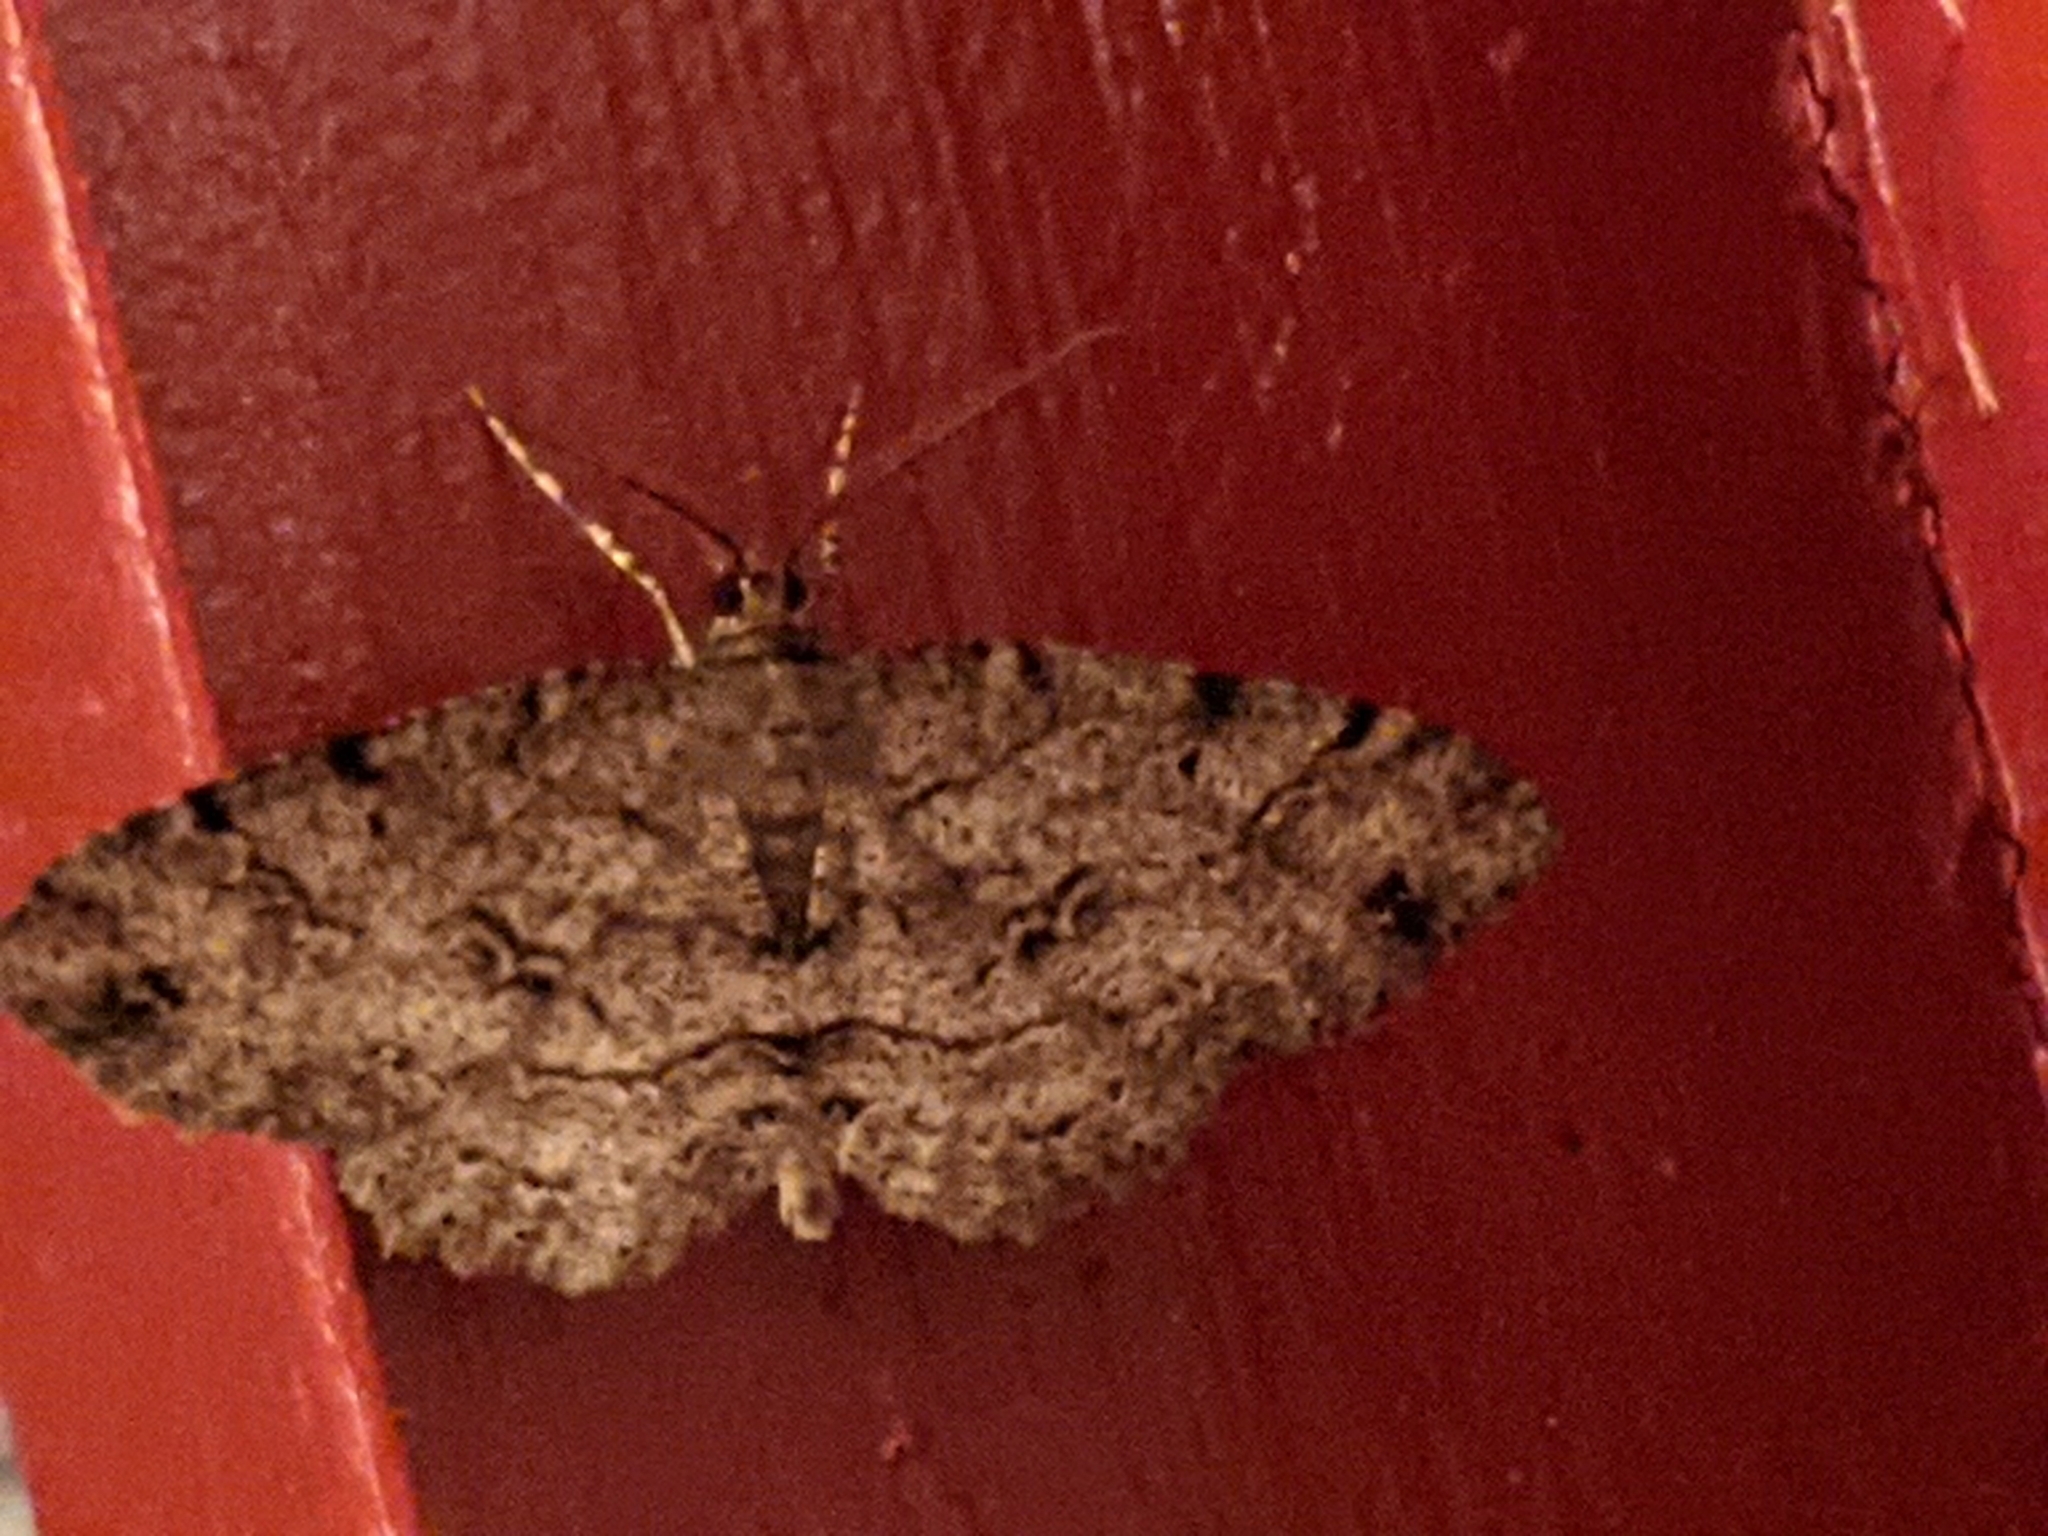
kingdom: Animalia
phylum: Arthropoda
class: Insecta
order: Lepidoptera
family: Geometridae
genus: Melanolophia
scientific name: Melanolophia canadaria
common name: Canadian melanolophia
